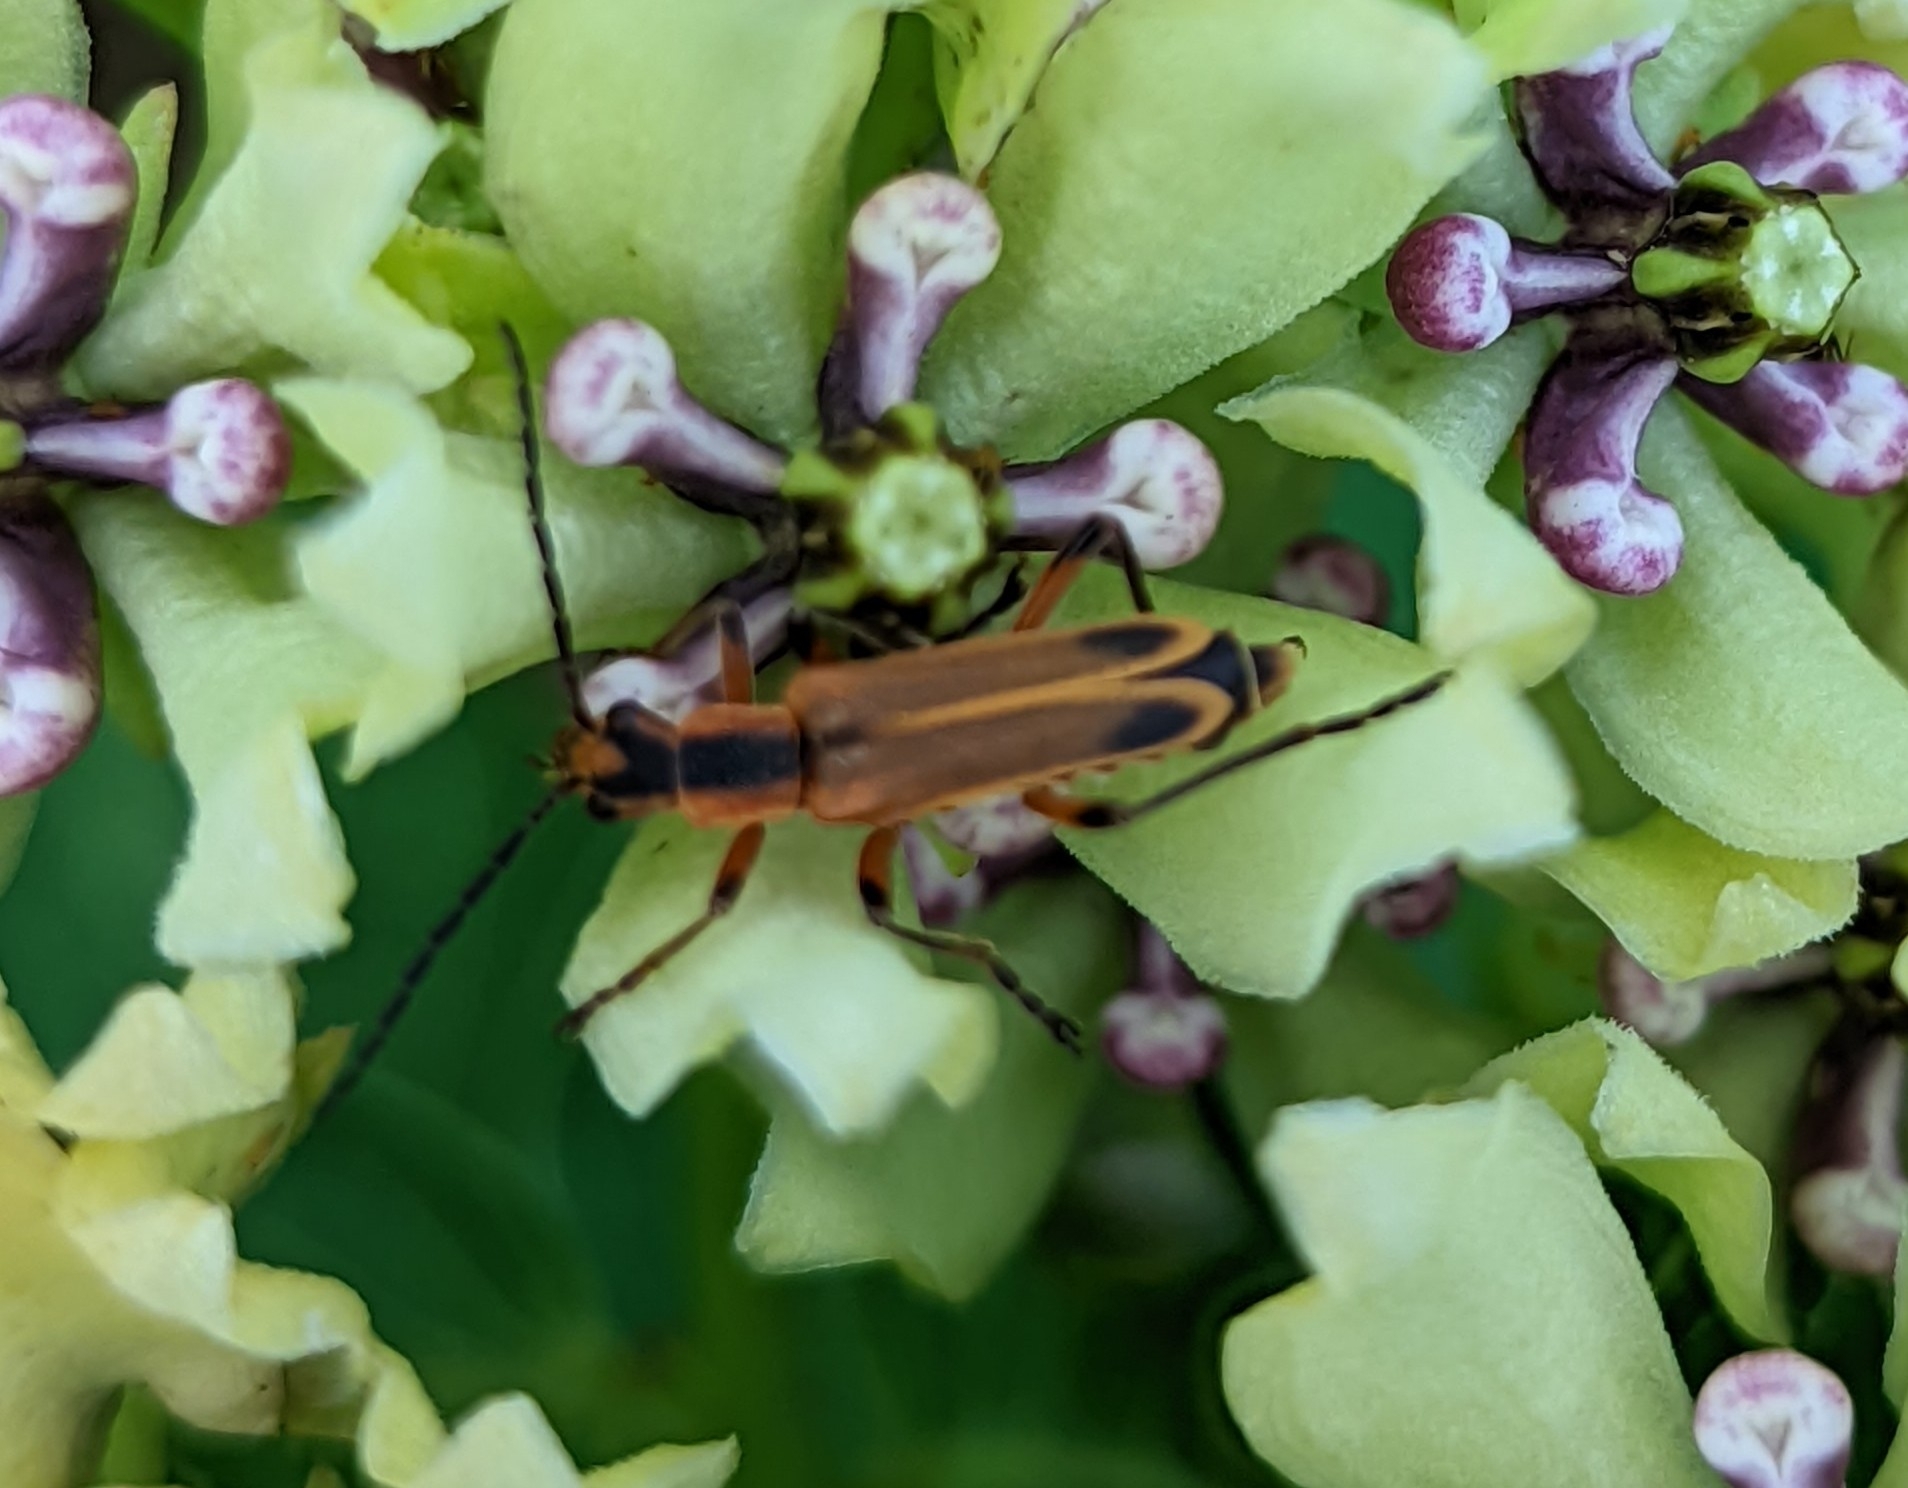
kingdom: Animalia
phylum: Arthropoda
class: Insecta
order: Coleoptera
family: Cantharidae
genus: Chauliognathus
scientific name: Chauliognathus marginatus
